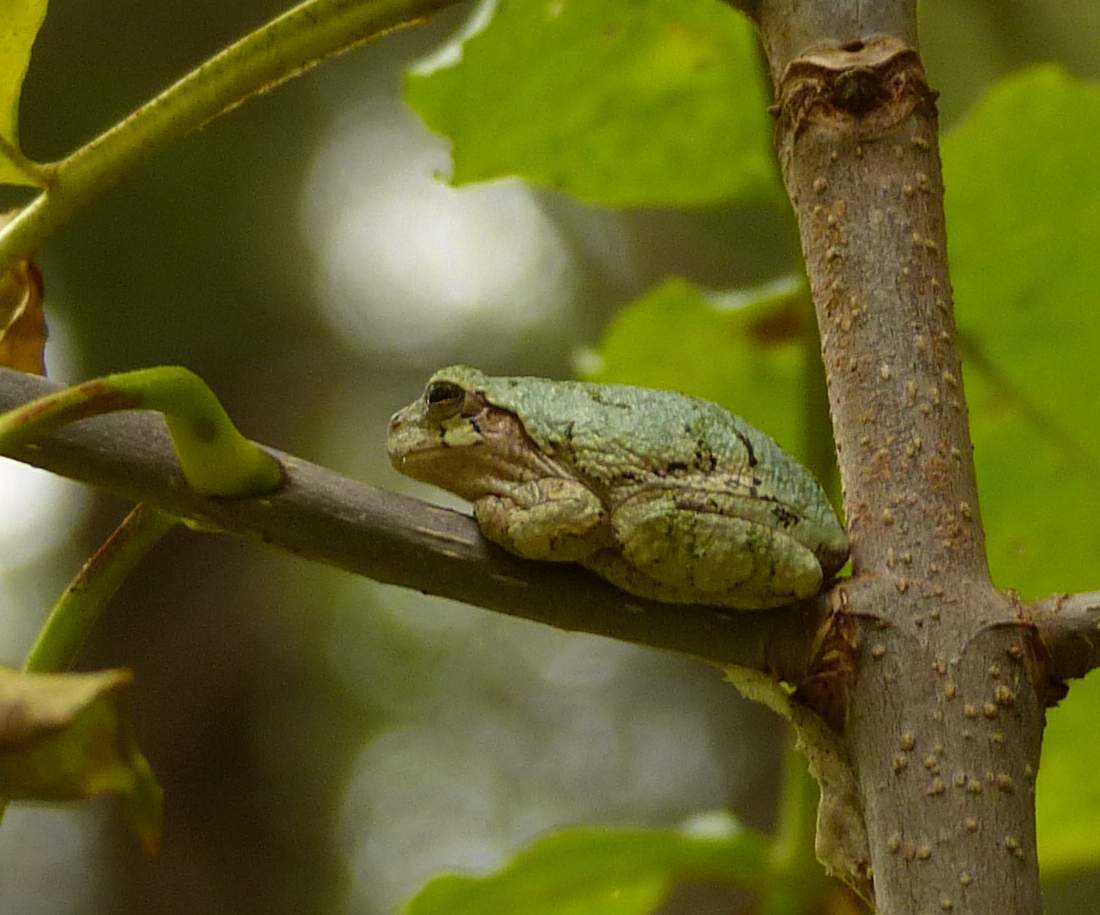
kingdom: Animalia
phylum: Chordata
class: Amphibia
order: Anura
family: Hylidae
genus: Dryophytes
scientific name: Dryophytes versicolor
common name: Gray treefrog
